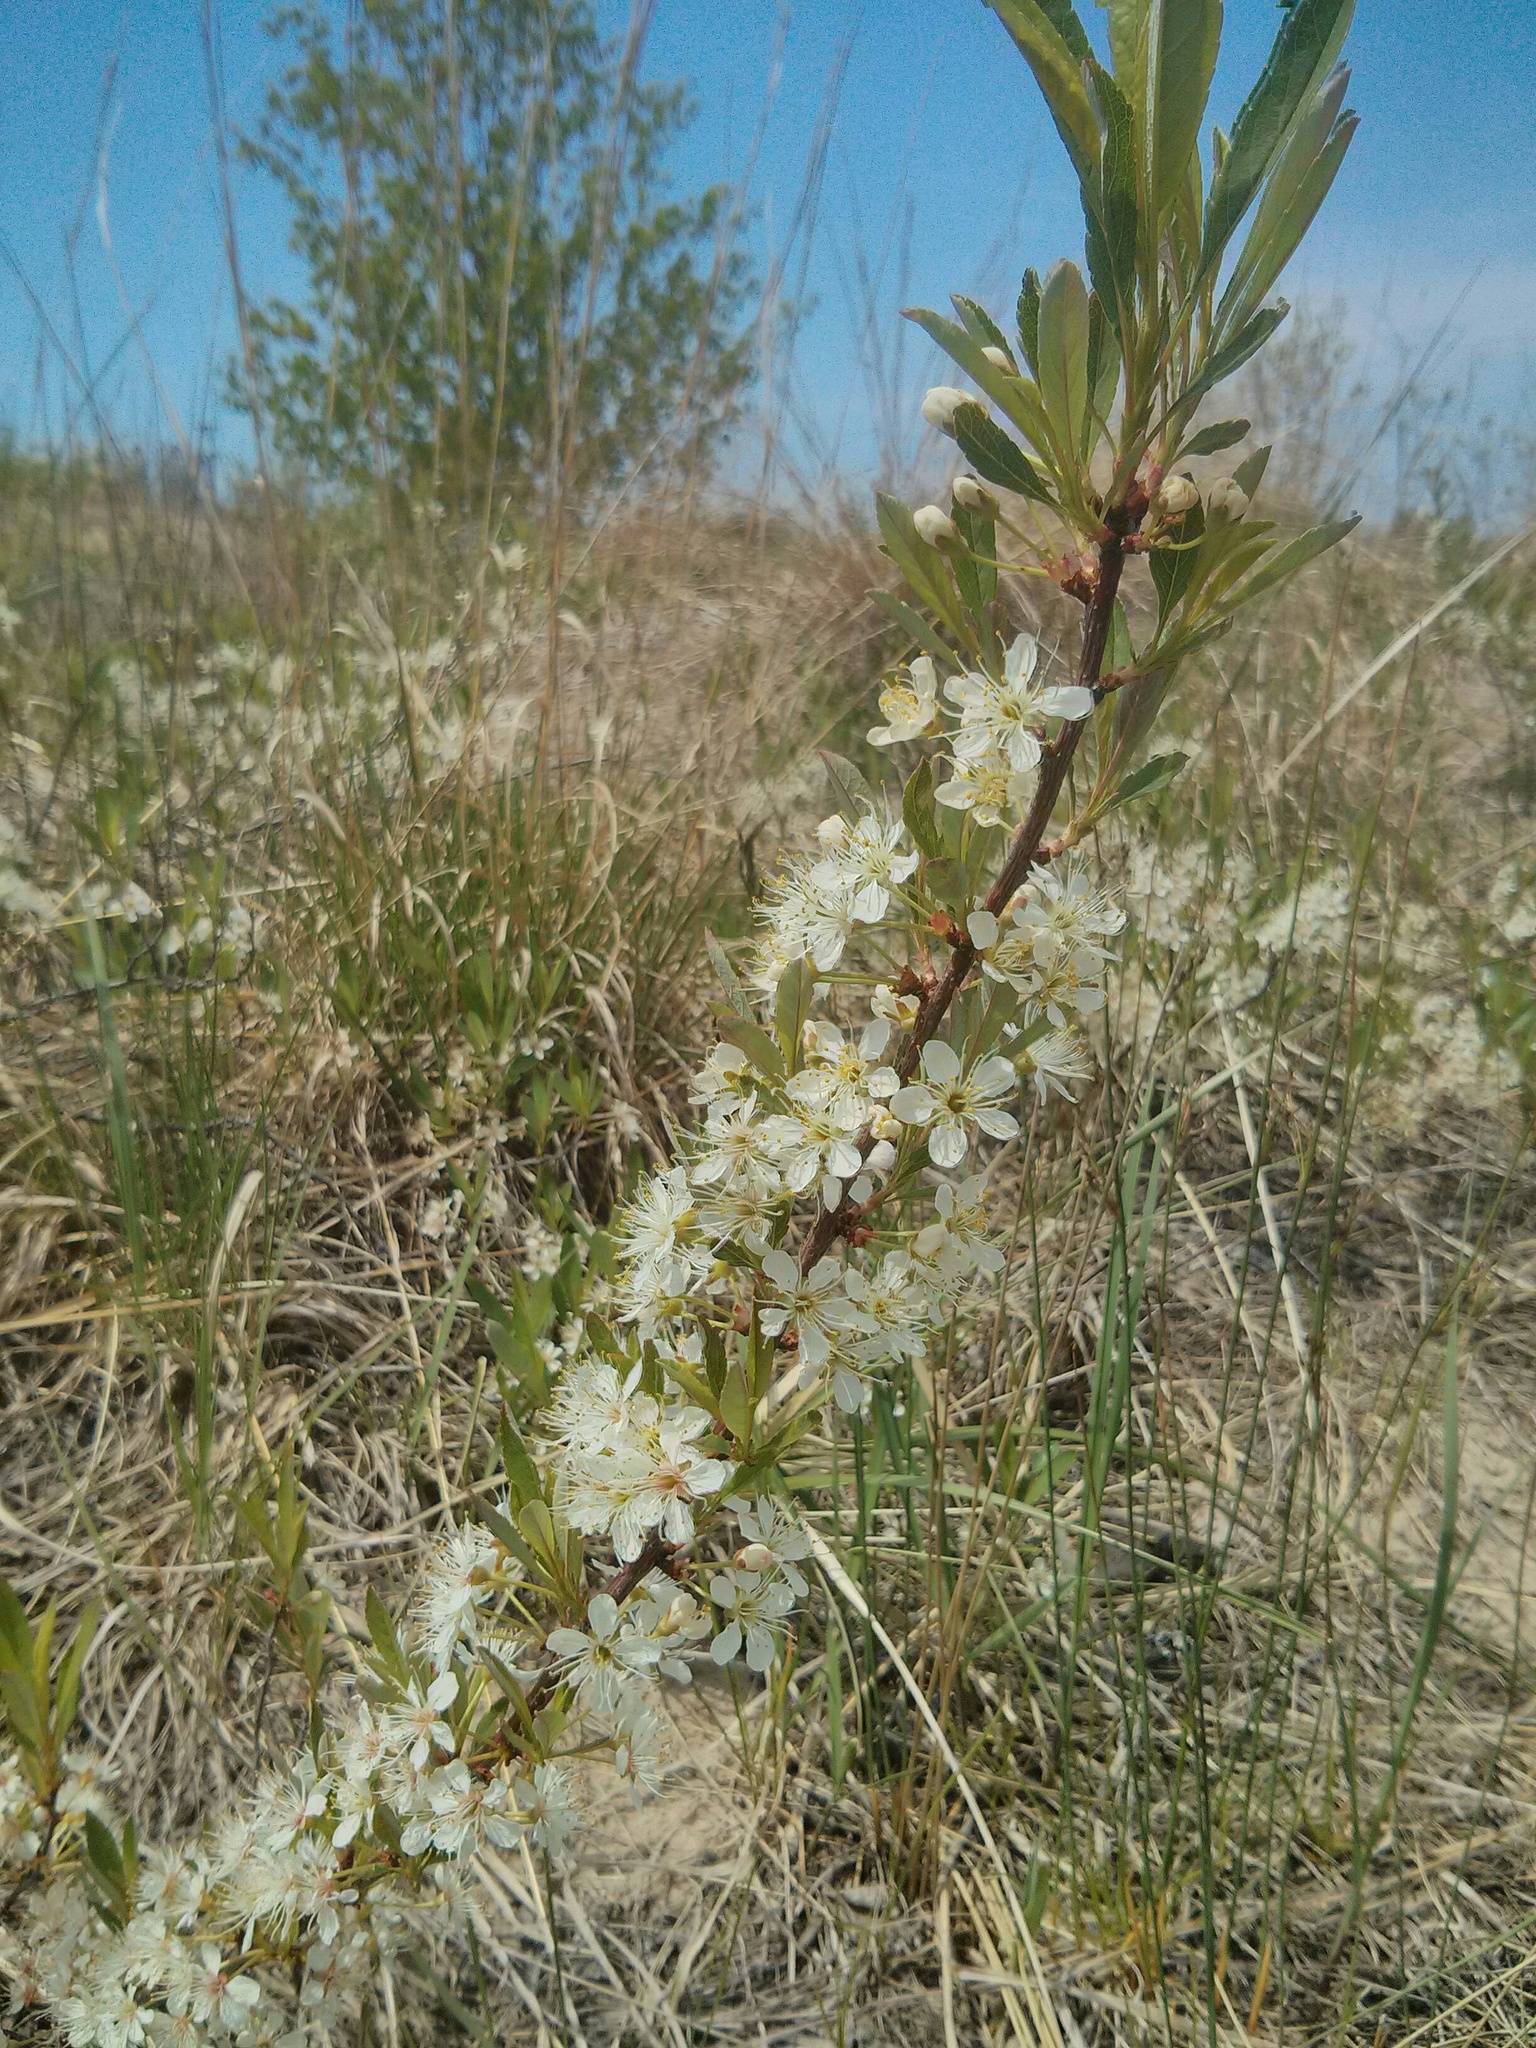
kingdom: Plantae
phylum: Tracheophyta
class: Magnoliopsida
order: Rosales
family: Rosaceae
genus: Prunus
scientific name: Prunus pumila
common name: Dwarf cherry
